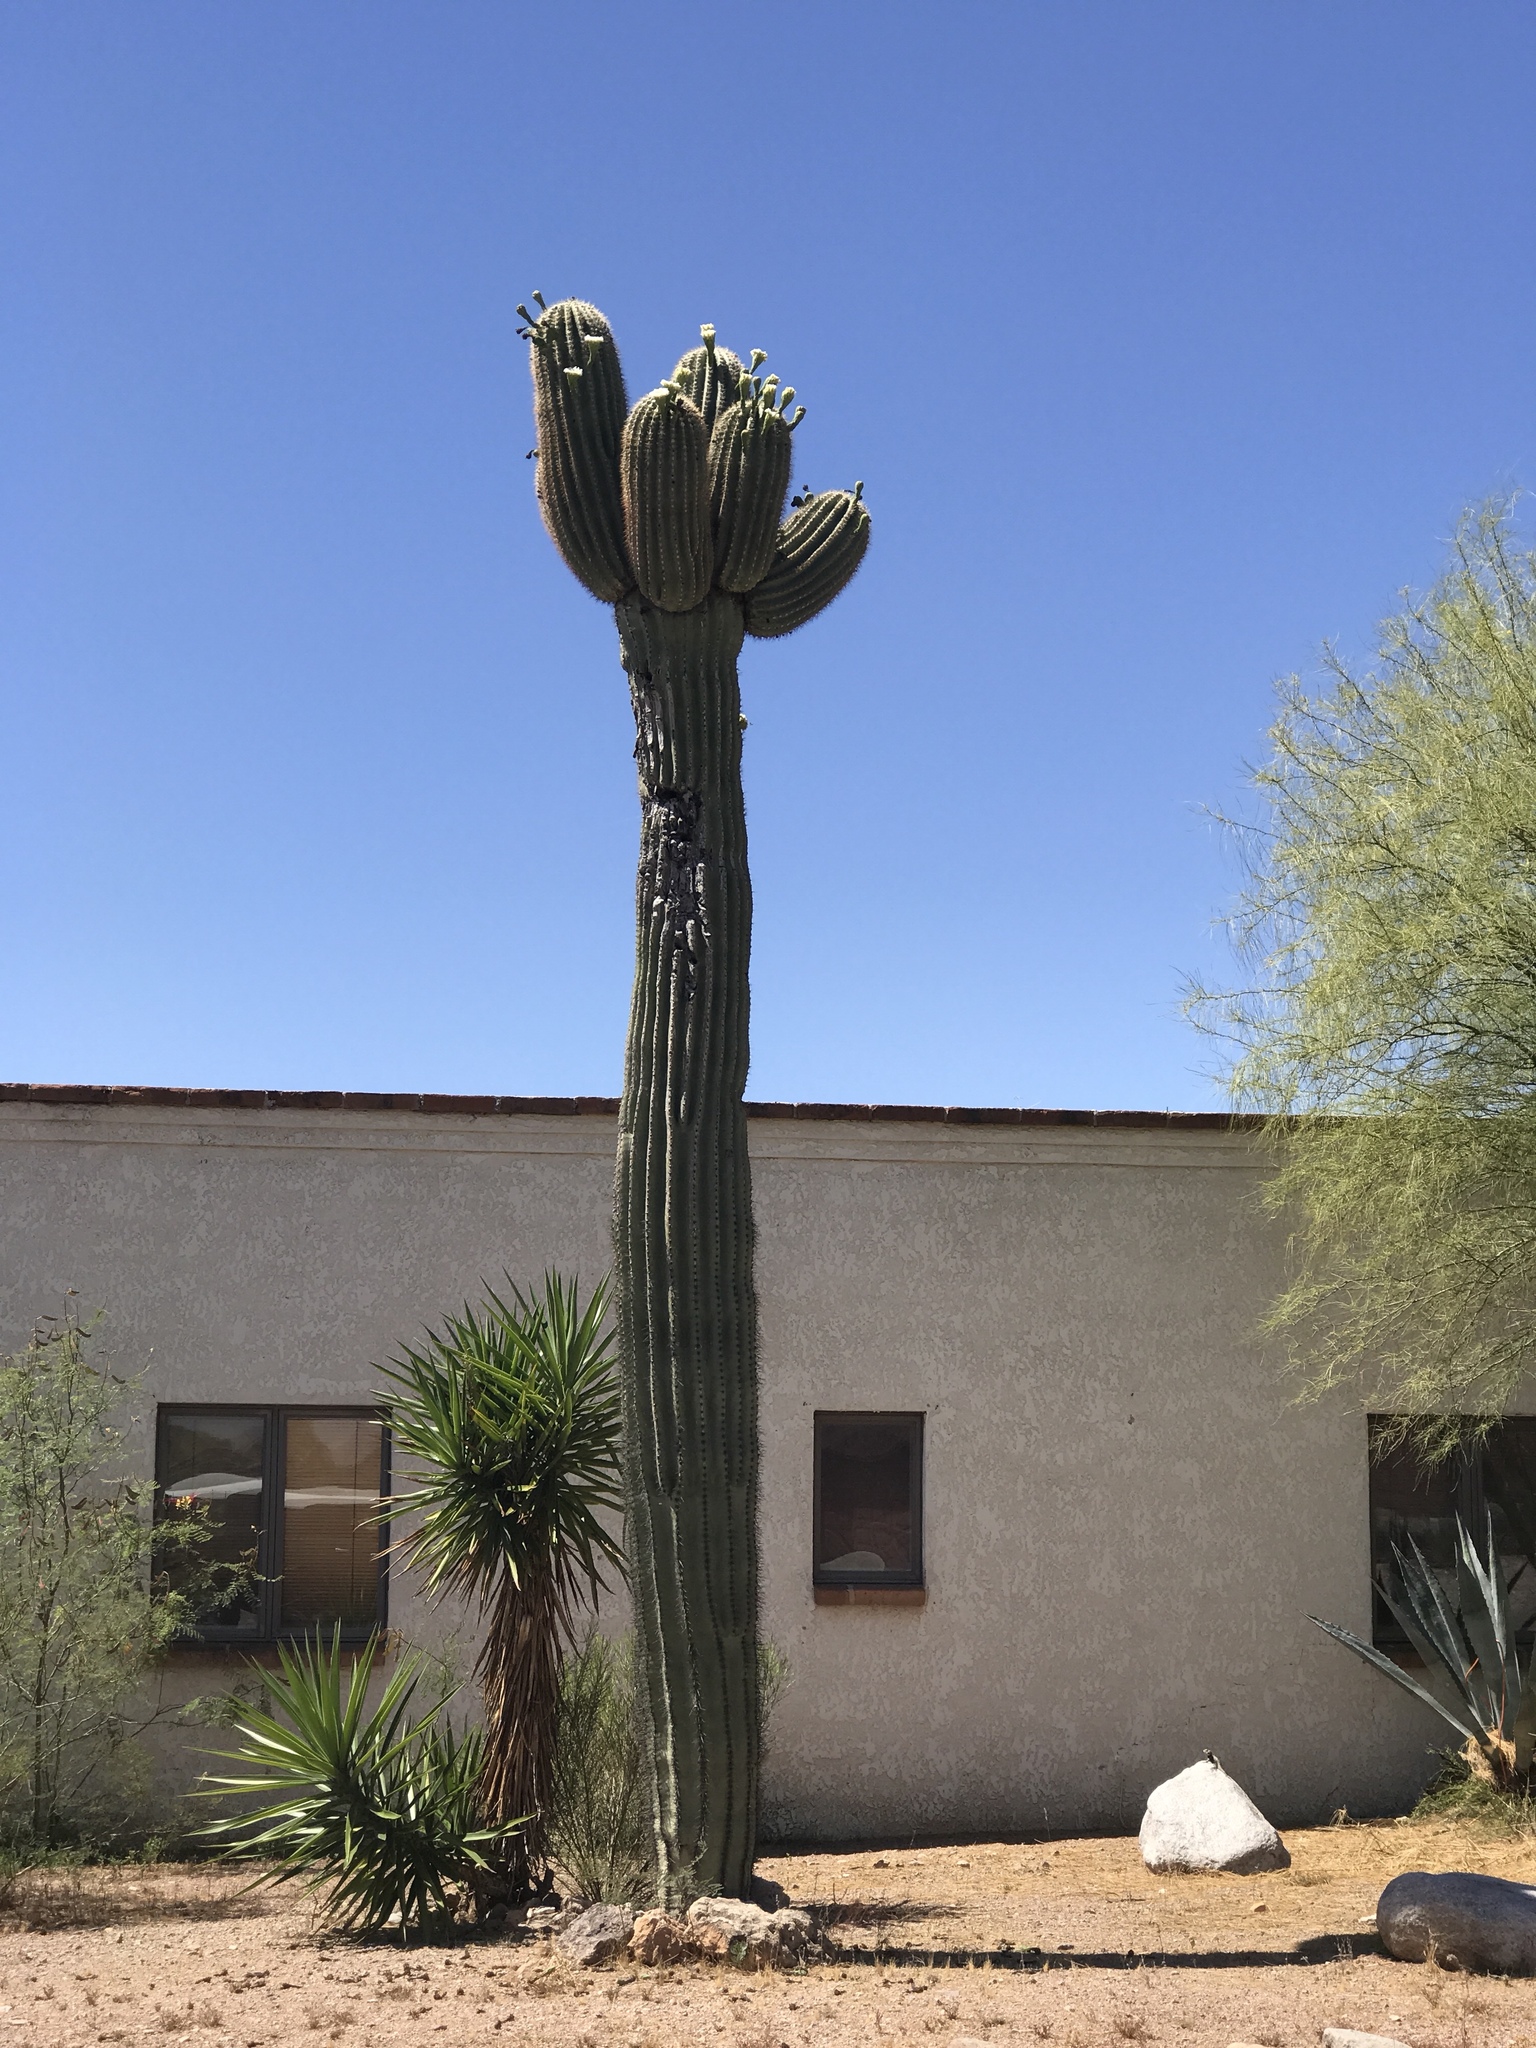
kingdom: Plantae
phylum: Tracheophyta
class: Magnoliopsida
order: Caryophyllales
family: Cactaceae
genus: Carnegiea
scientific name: Carnegiea gigantea
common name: Saguaro
